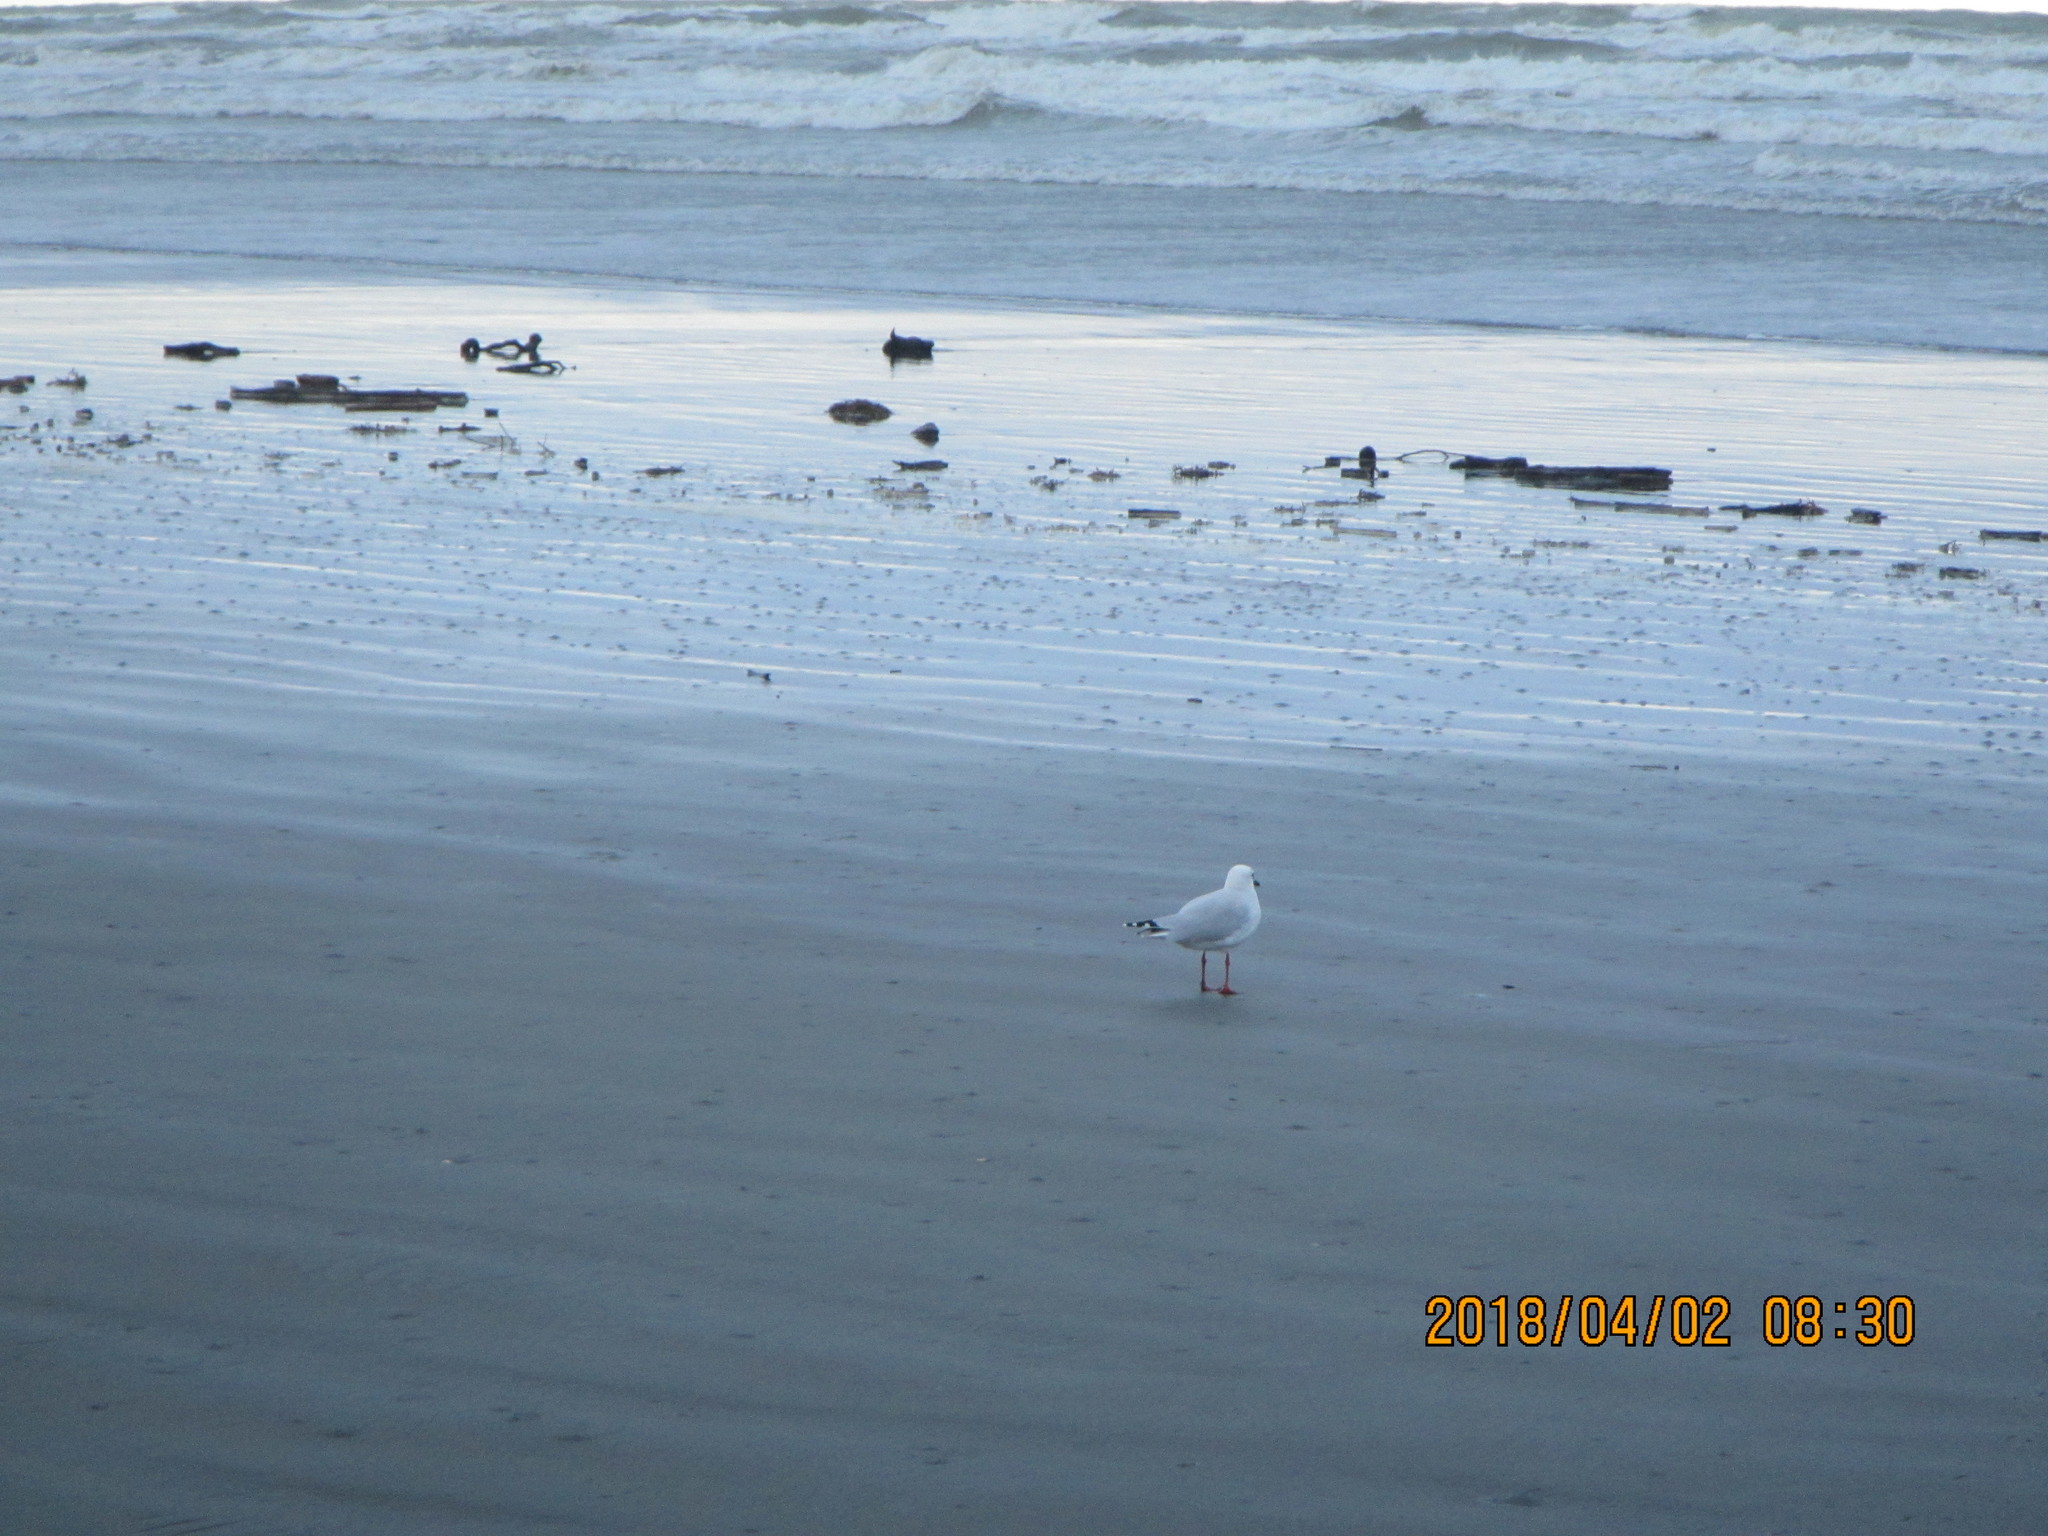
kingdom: Animalia
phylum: Chordata
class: Aves
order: Charadriiformes
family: Laridae
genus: Chroicocephalus
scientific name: Chroicocephalus novaehollandiae
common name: Silver gull
